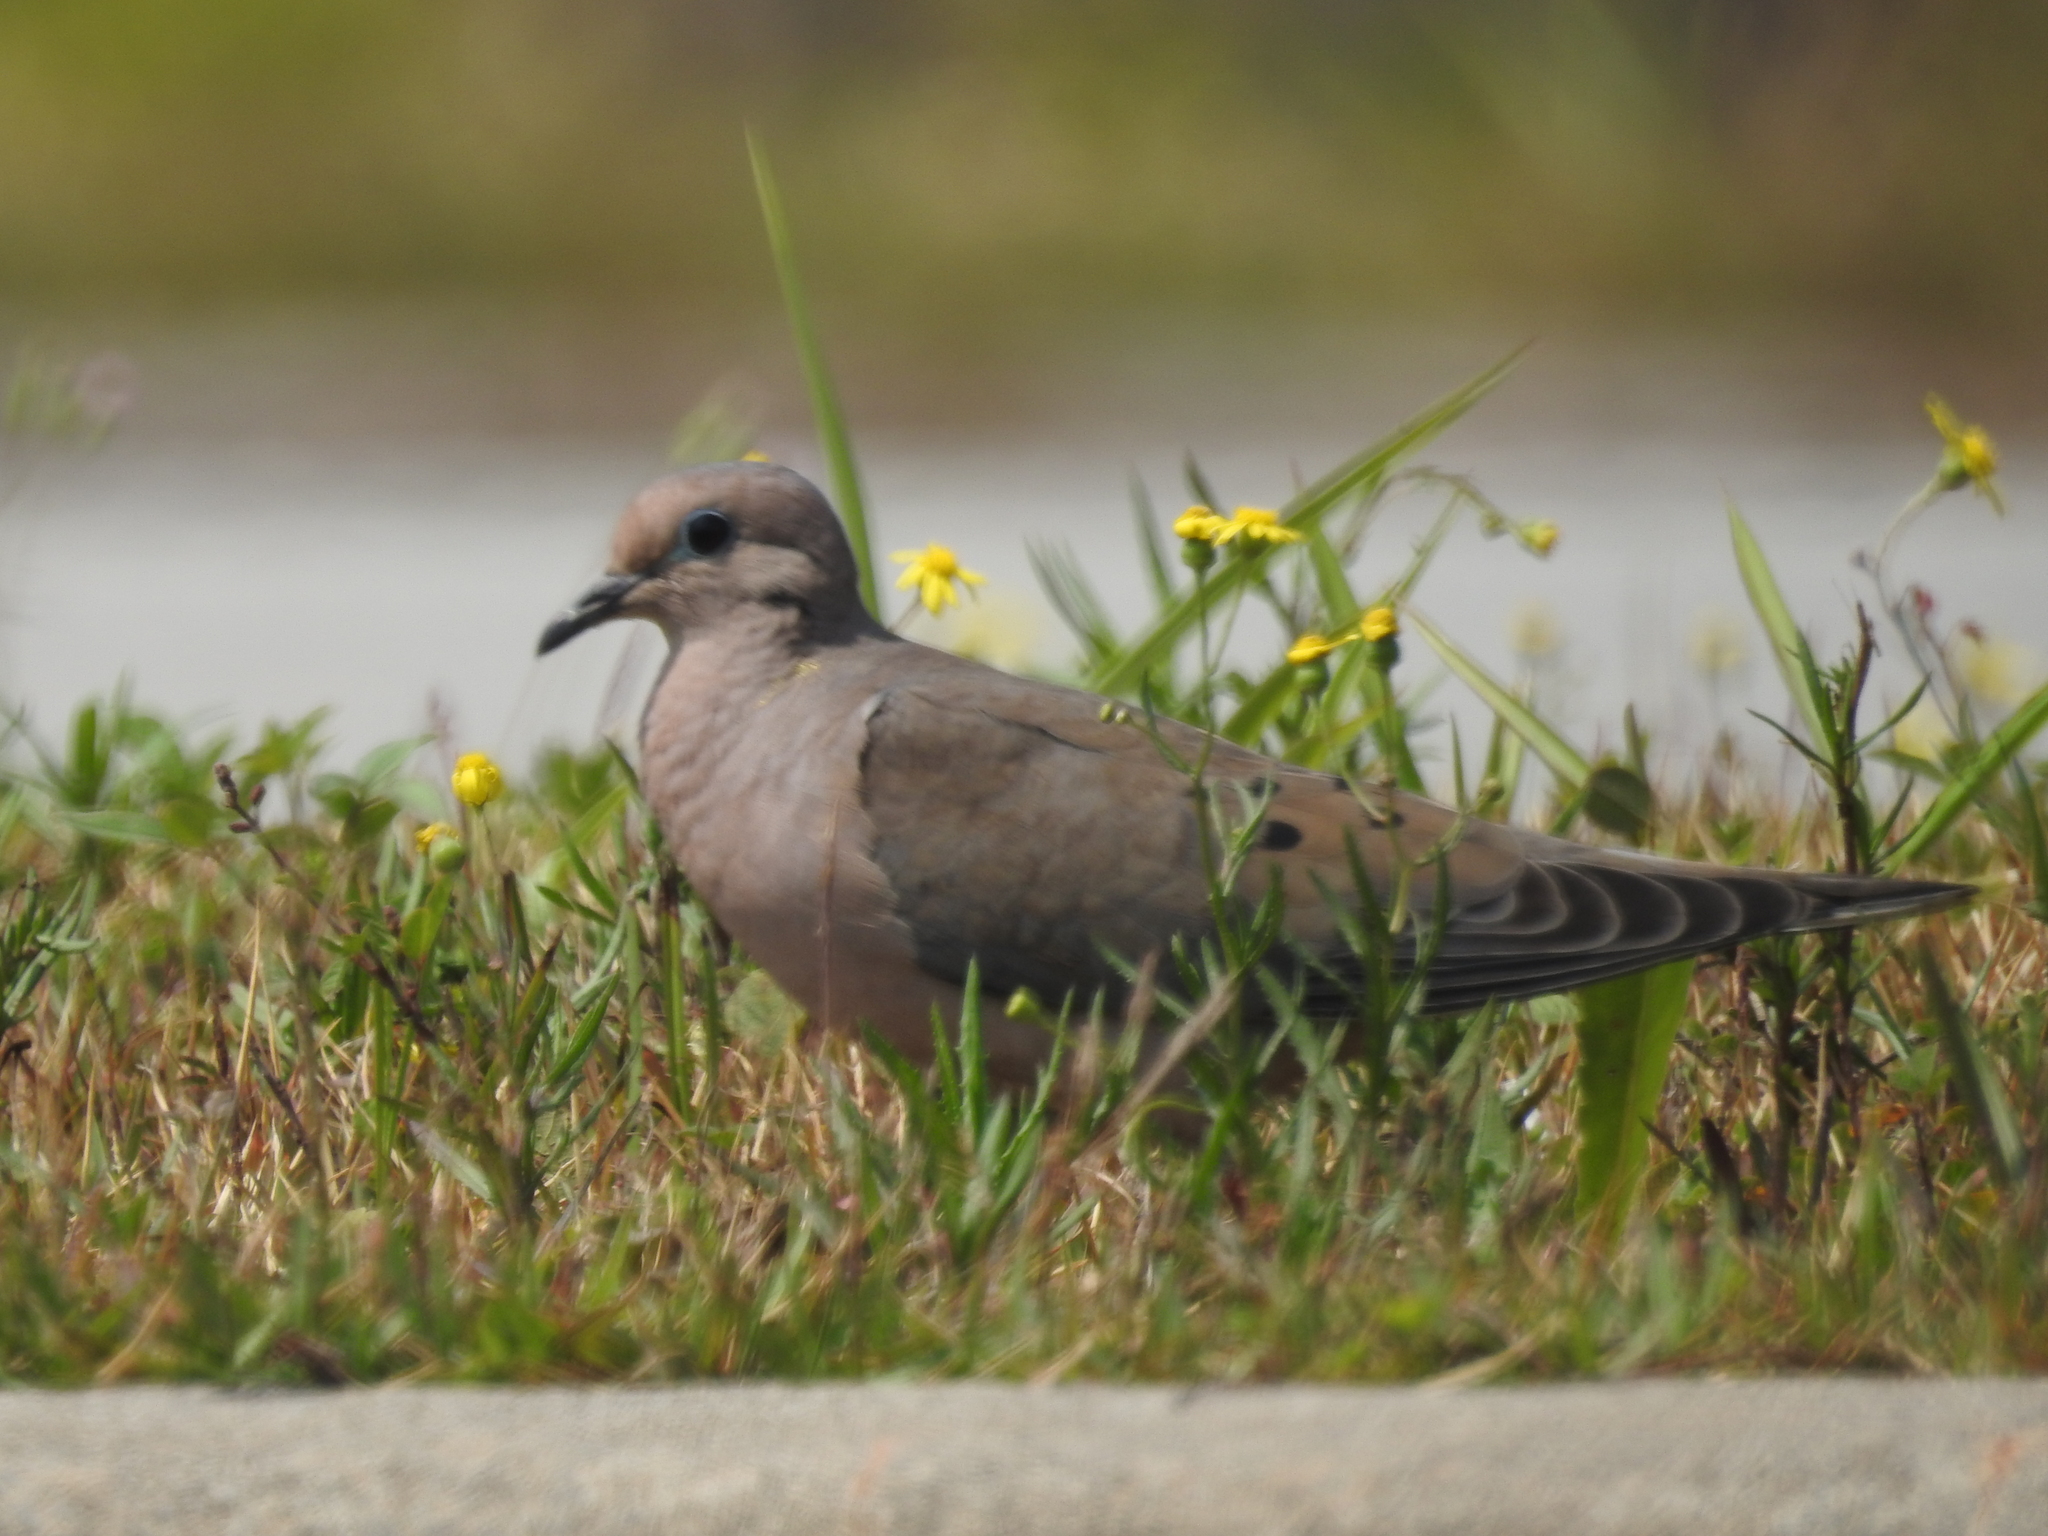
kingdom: Animalia
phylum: Chordata
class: Aves
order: Columbiformes
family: Columbidae
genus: Zenaida
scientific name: Zenaida auriculata
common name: Eared dove
